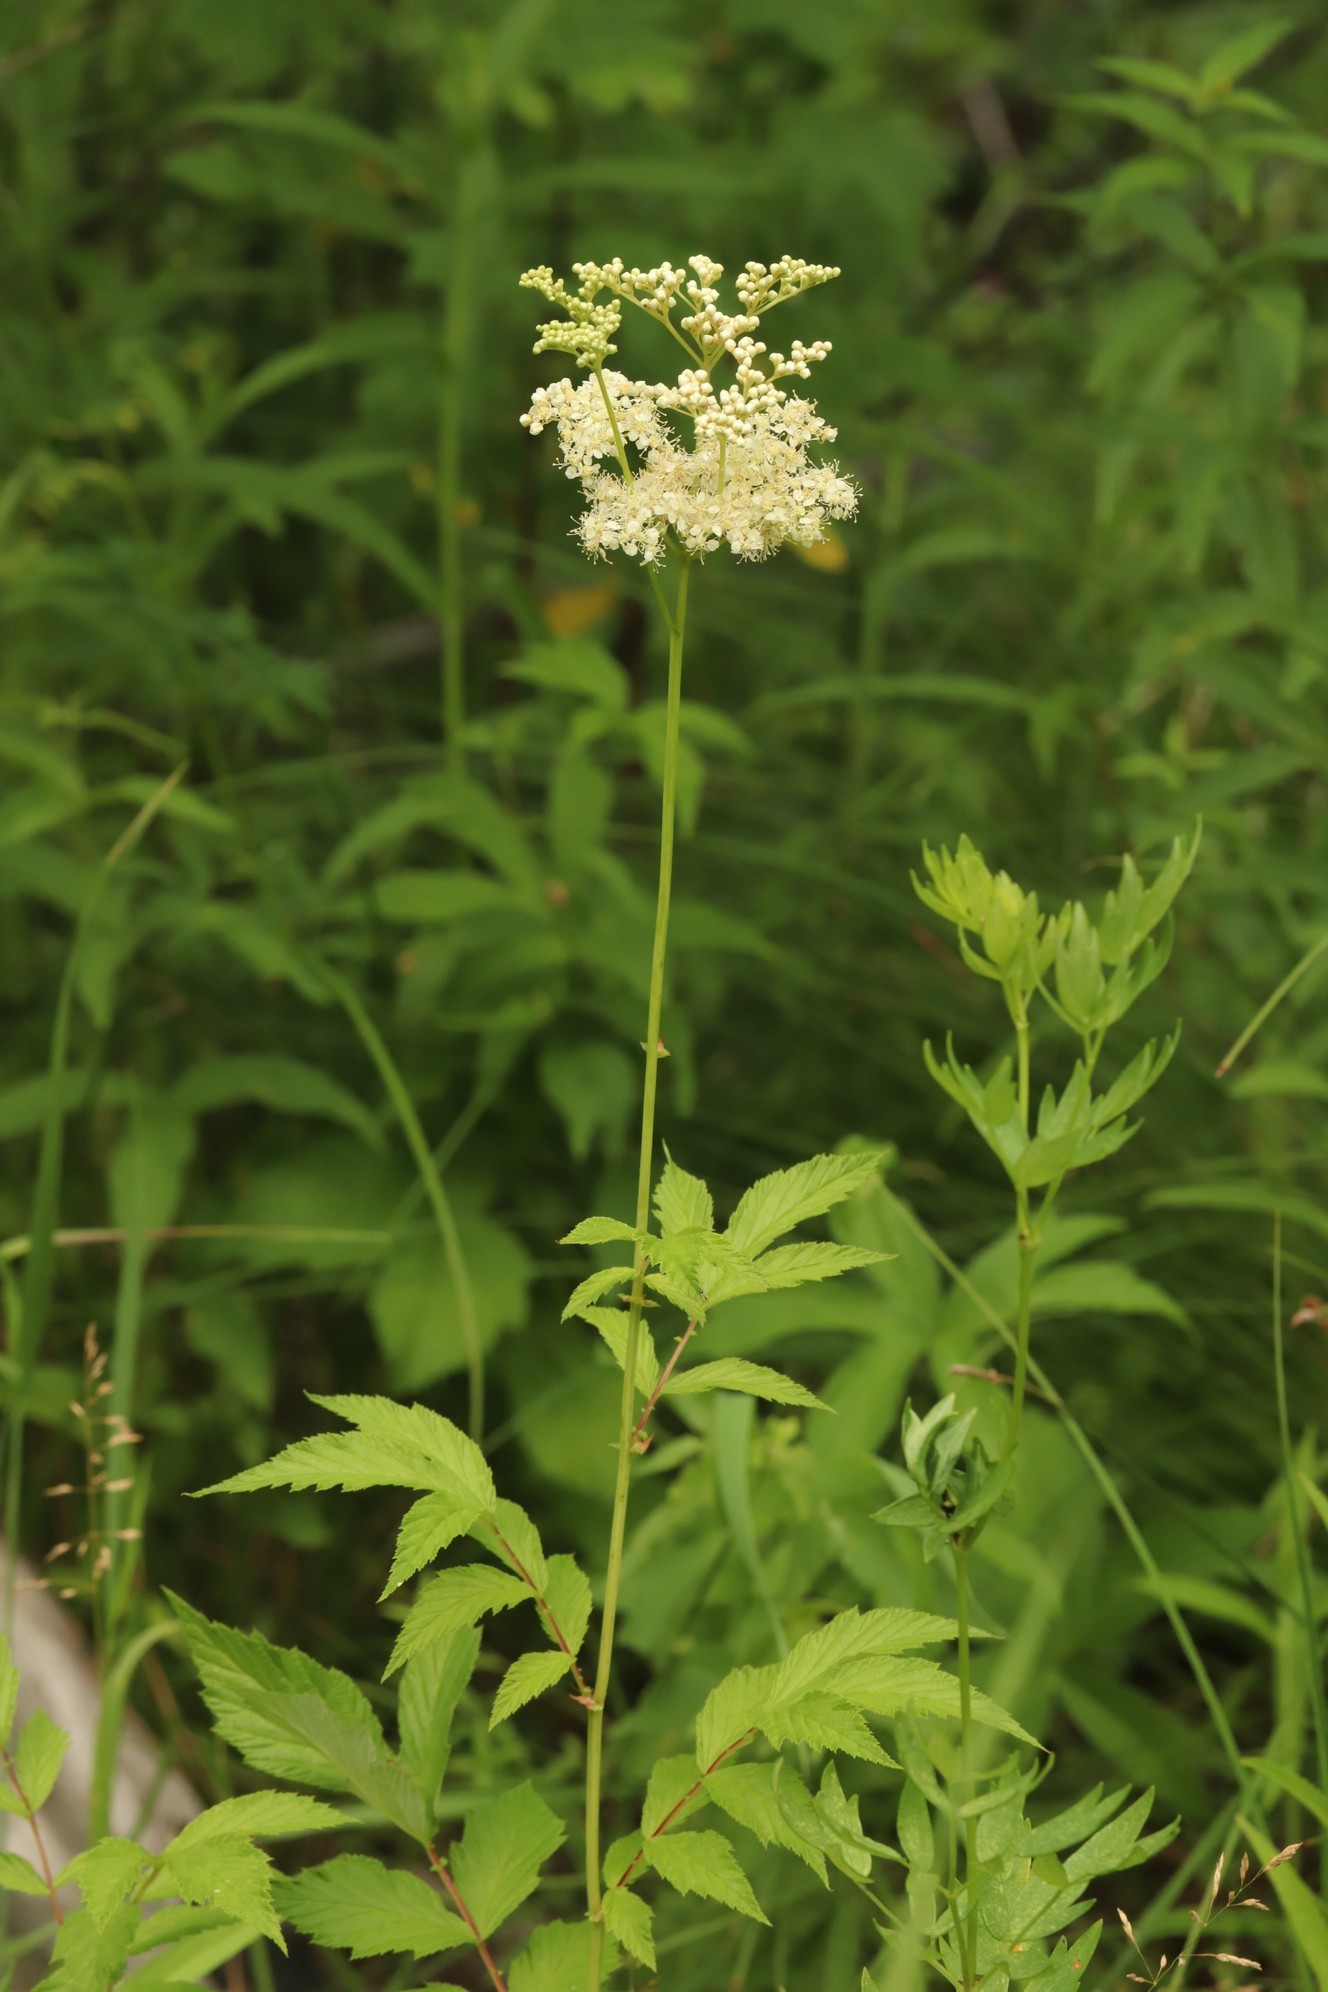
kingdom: Plantae
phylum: Tracheophyta
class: Magnoliopsida
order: Rosales
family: Rosaceae
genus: Filipendula
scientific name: Filipendula ulmaria
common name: Meadowsweet
